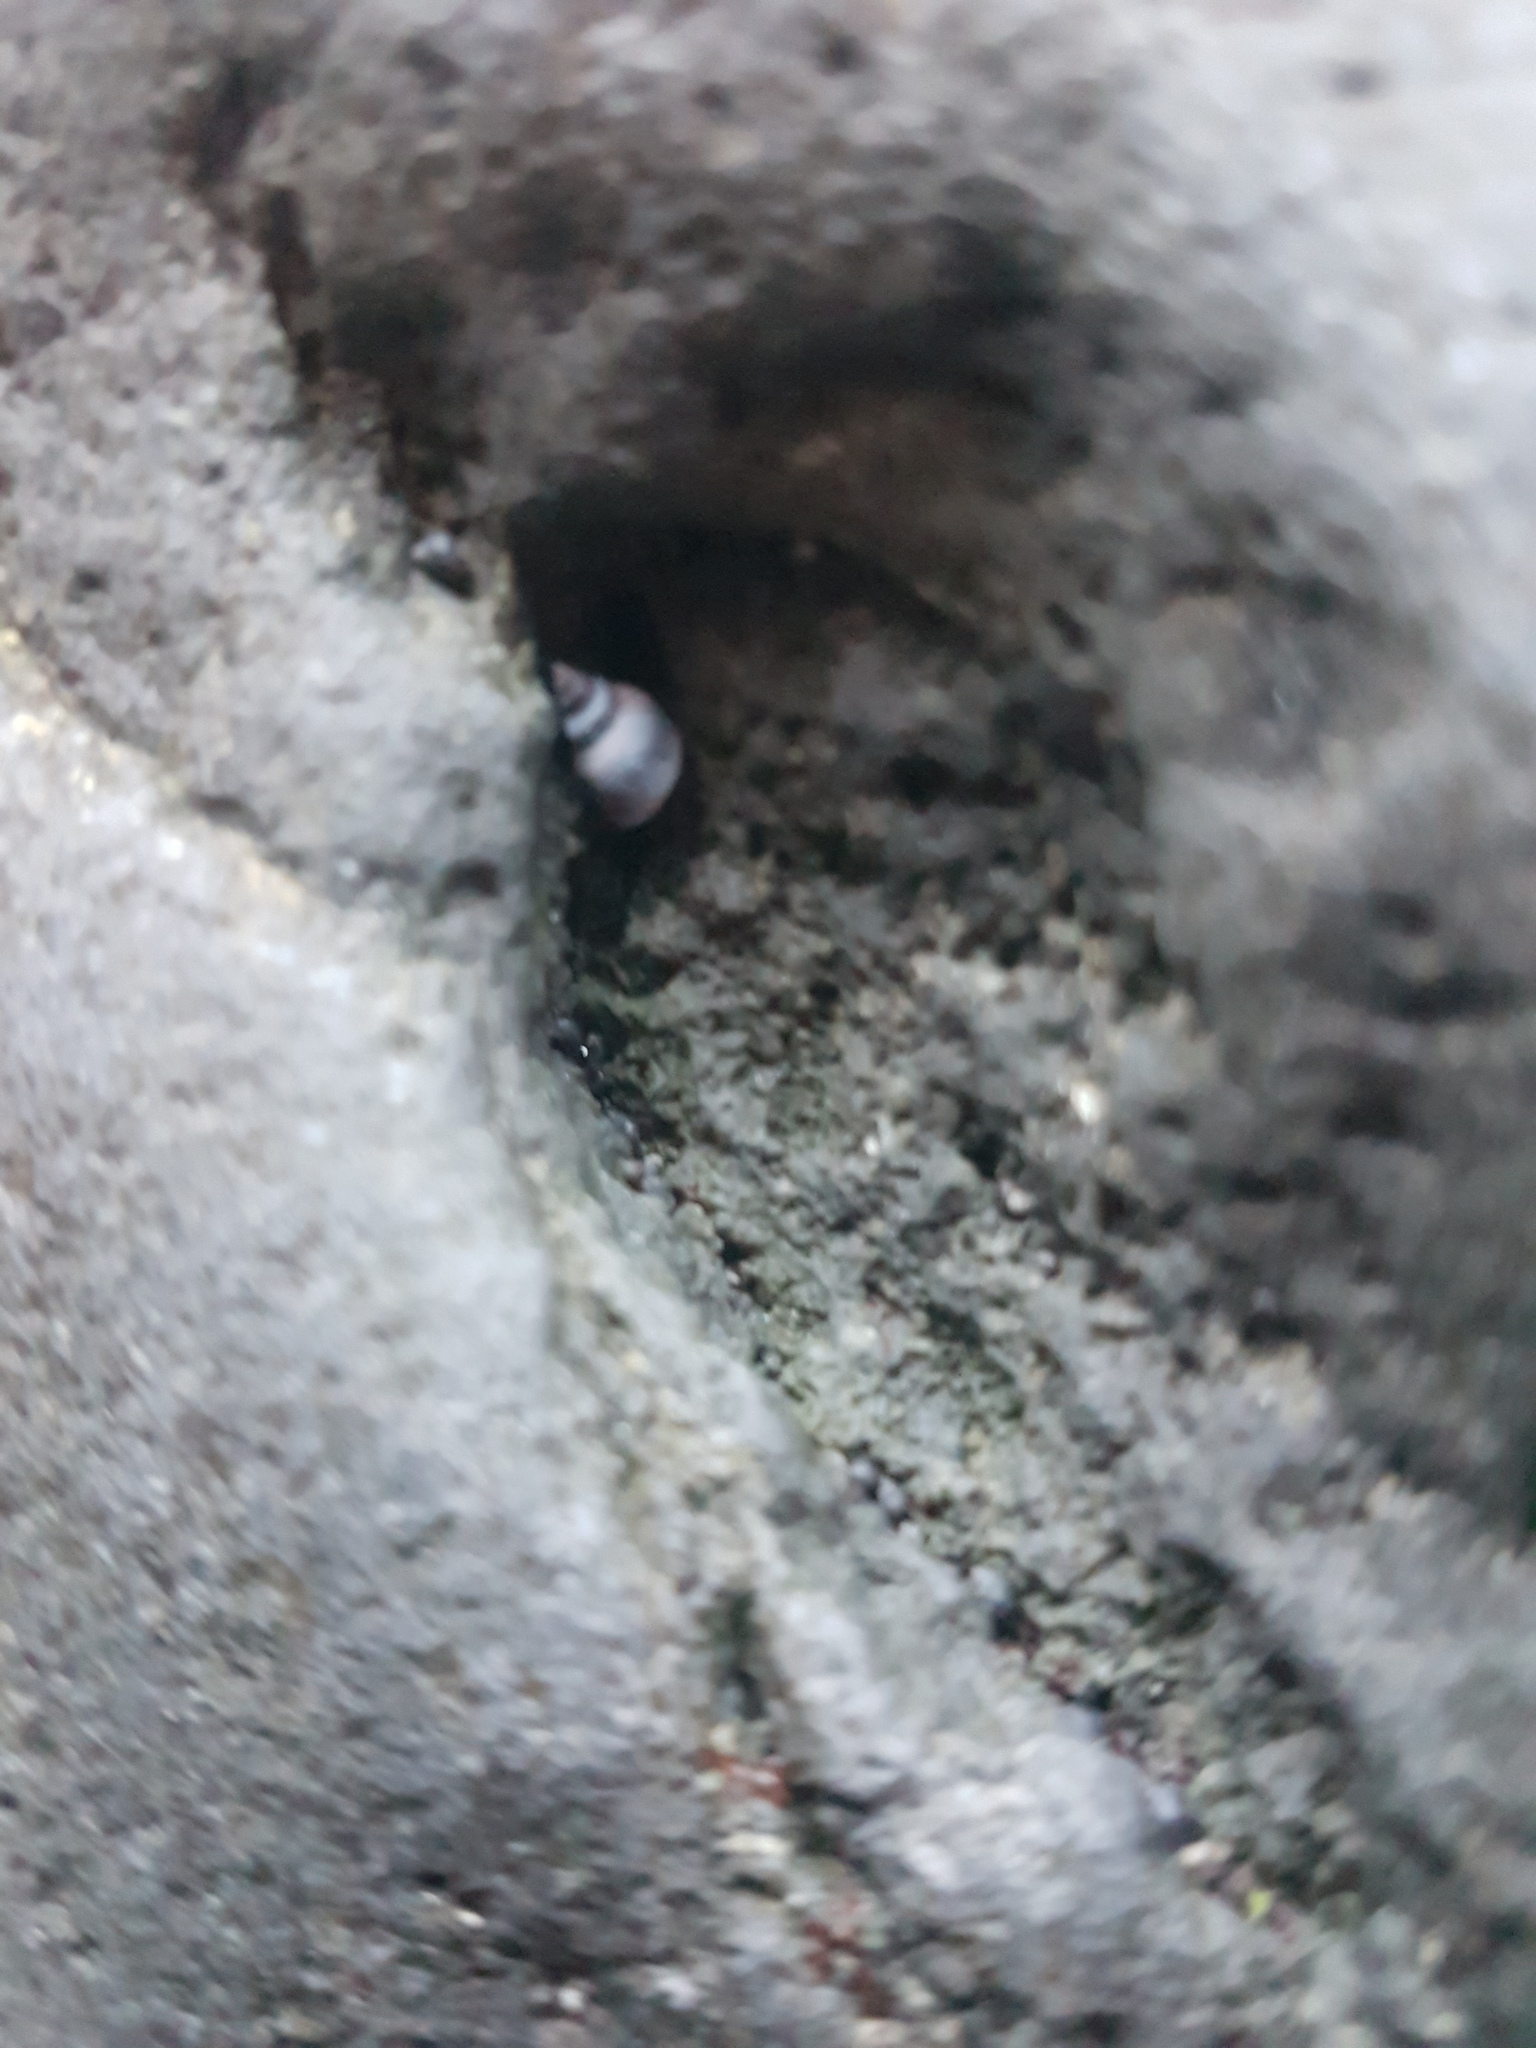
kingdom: Animalia
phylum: Mollusca
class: Gastropoda
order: Littorinimorpha
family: Littorinidae
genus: Austrolittorina
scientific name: Austrolittorina antipodum
